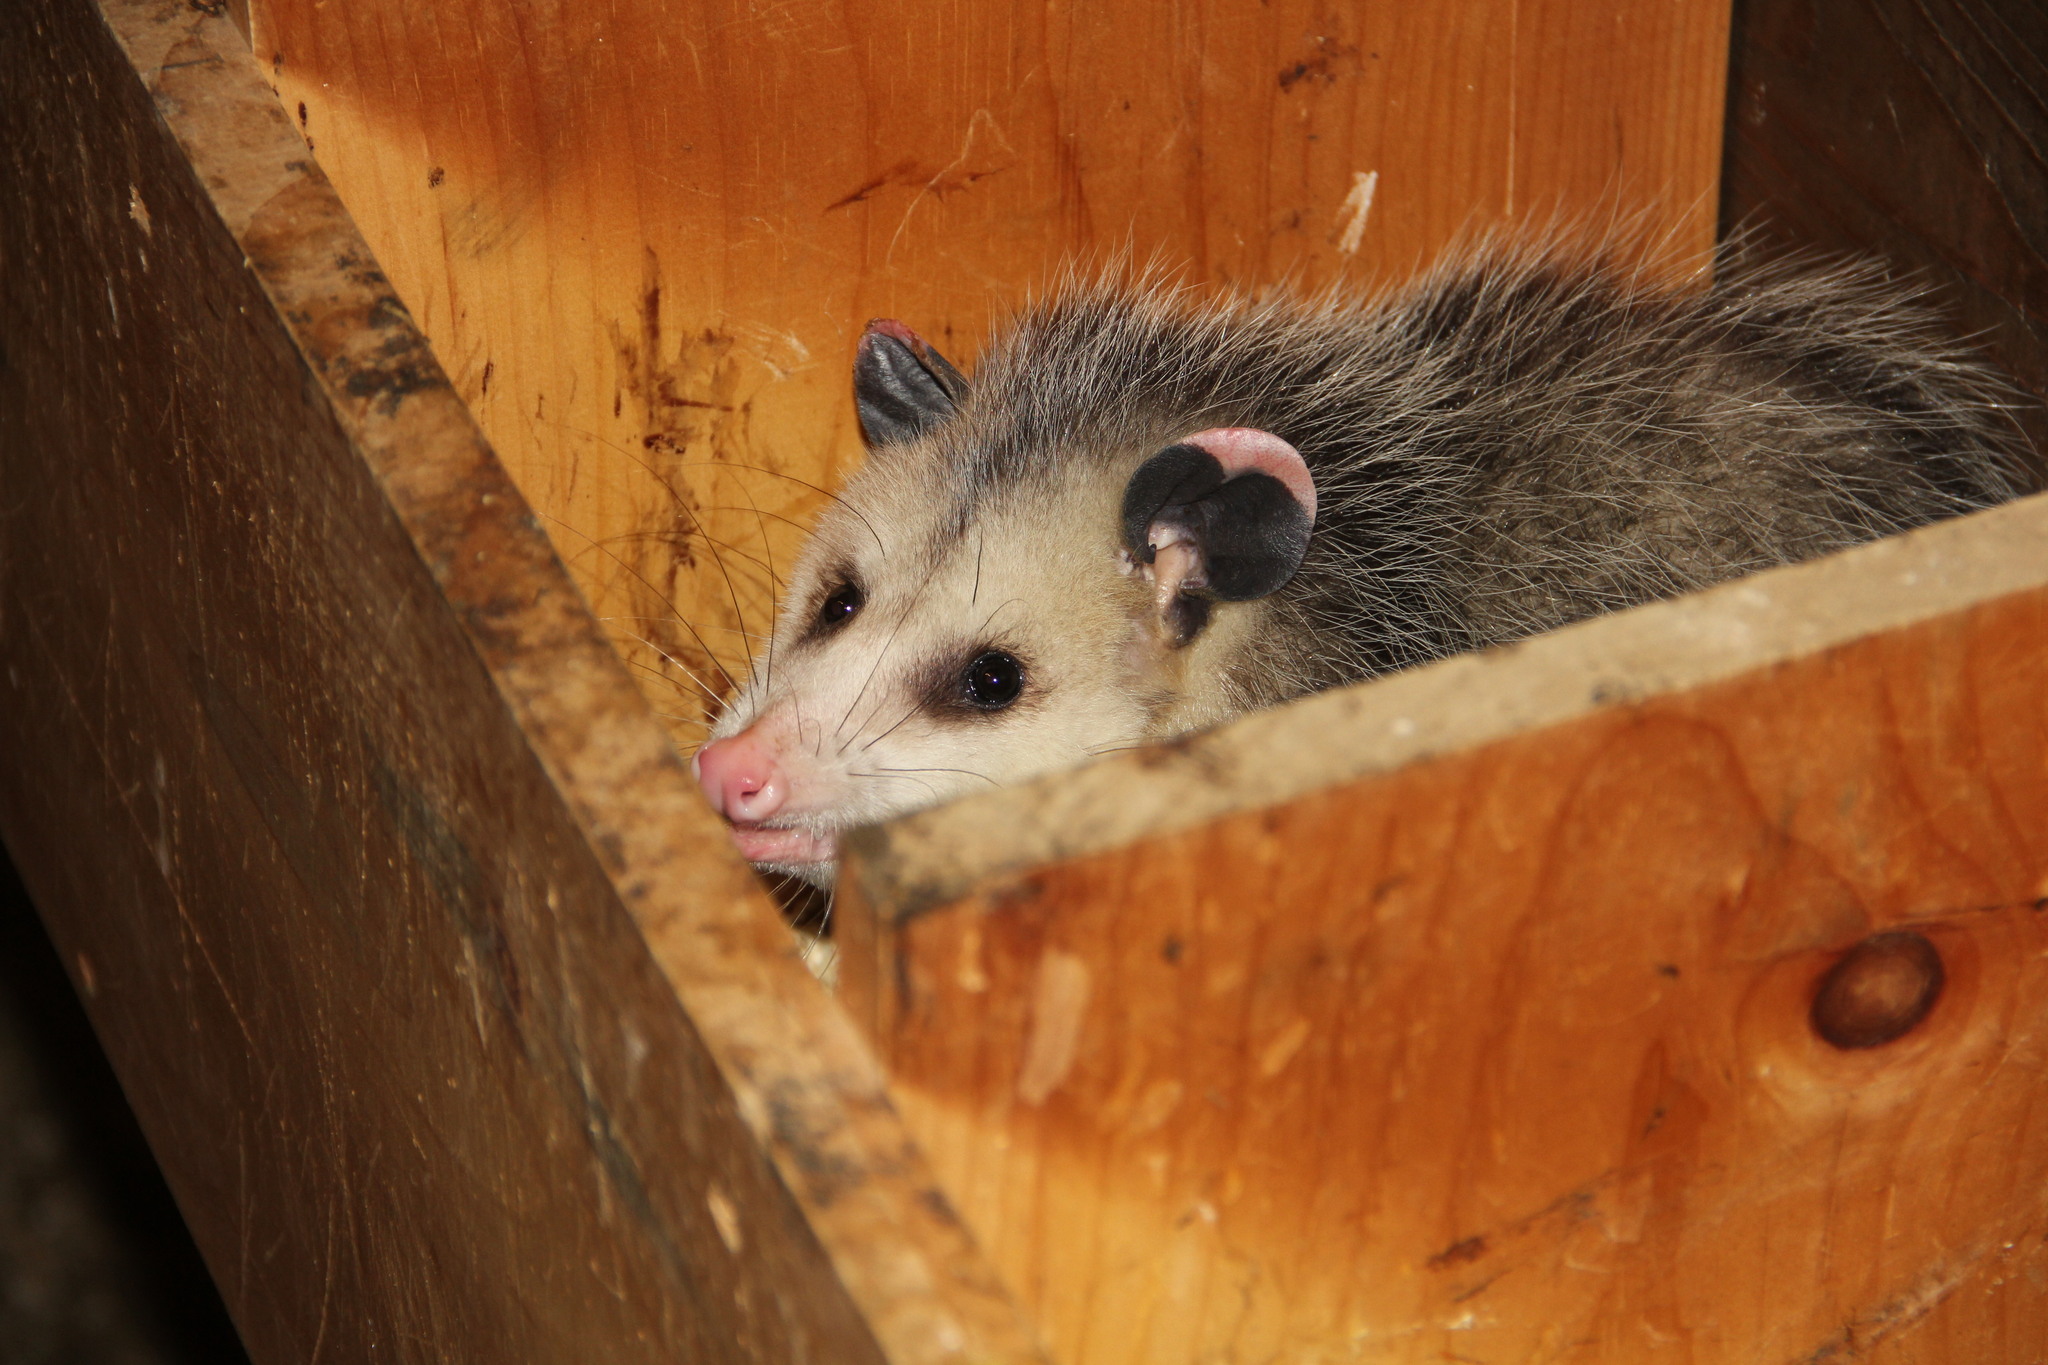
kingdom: Animalia
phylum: Chordata
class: Mammalia
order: Didelphimorphia
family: Didelphidae
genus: Didelphis
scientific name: Didelphis virginiana
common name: Virginia opossum
